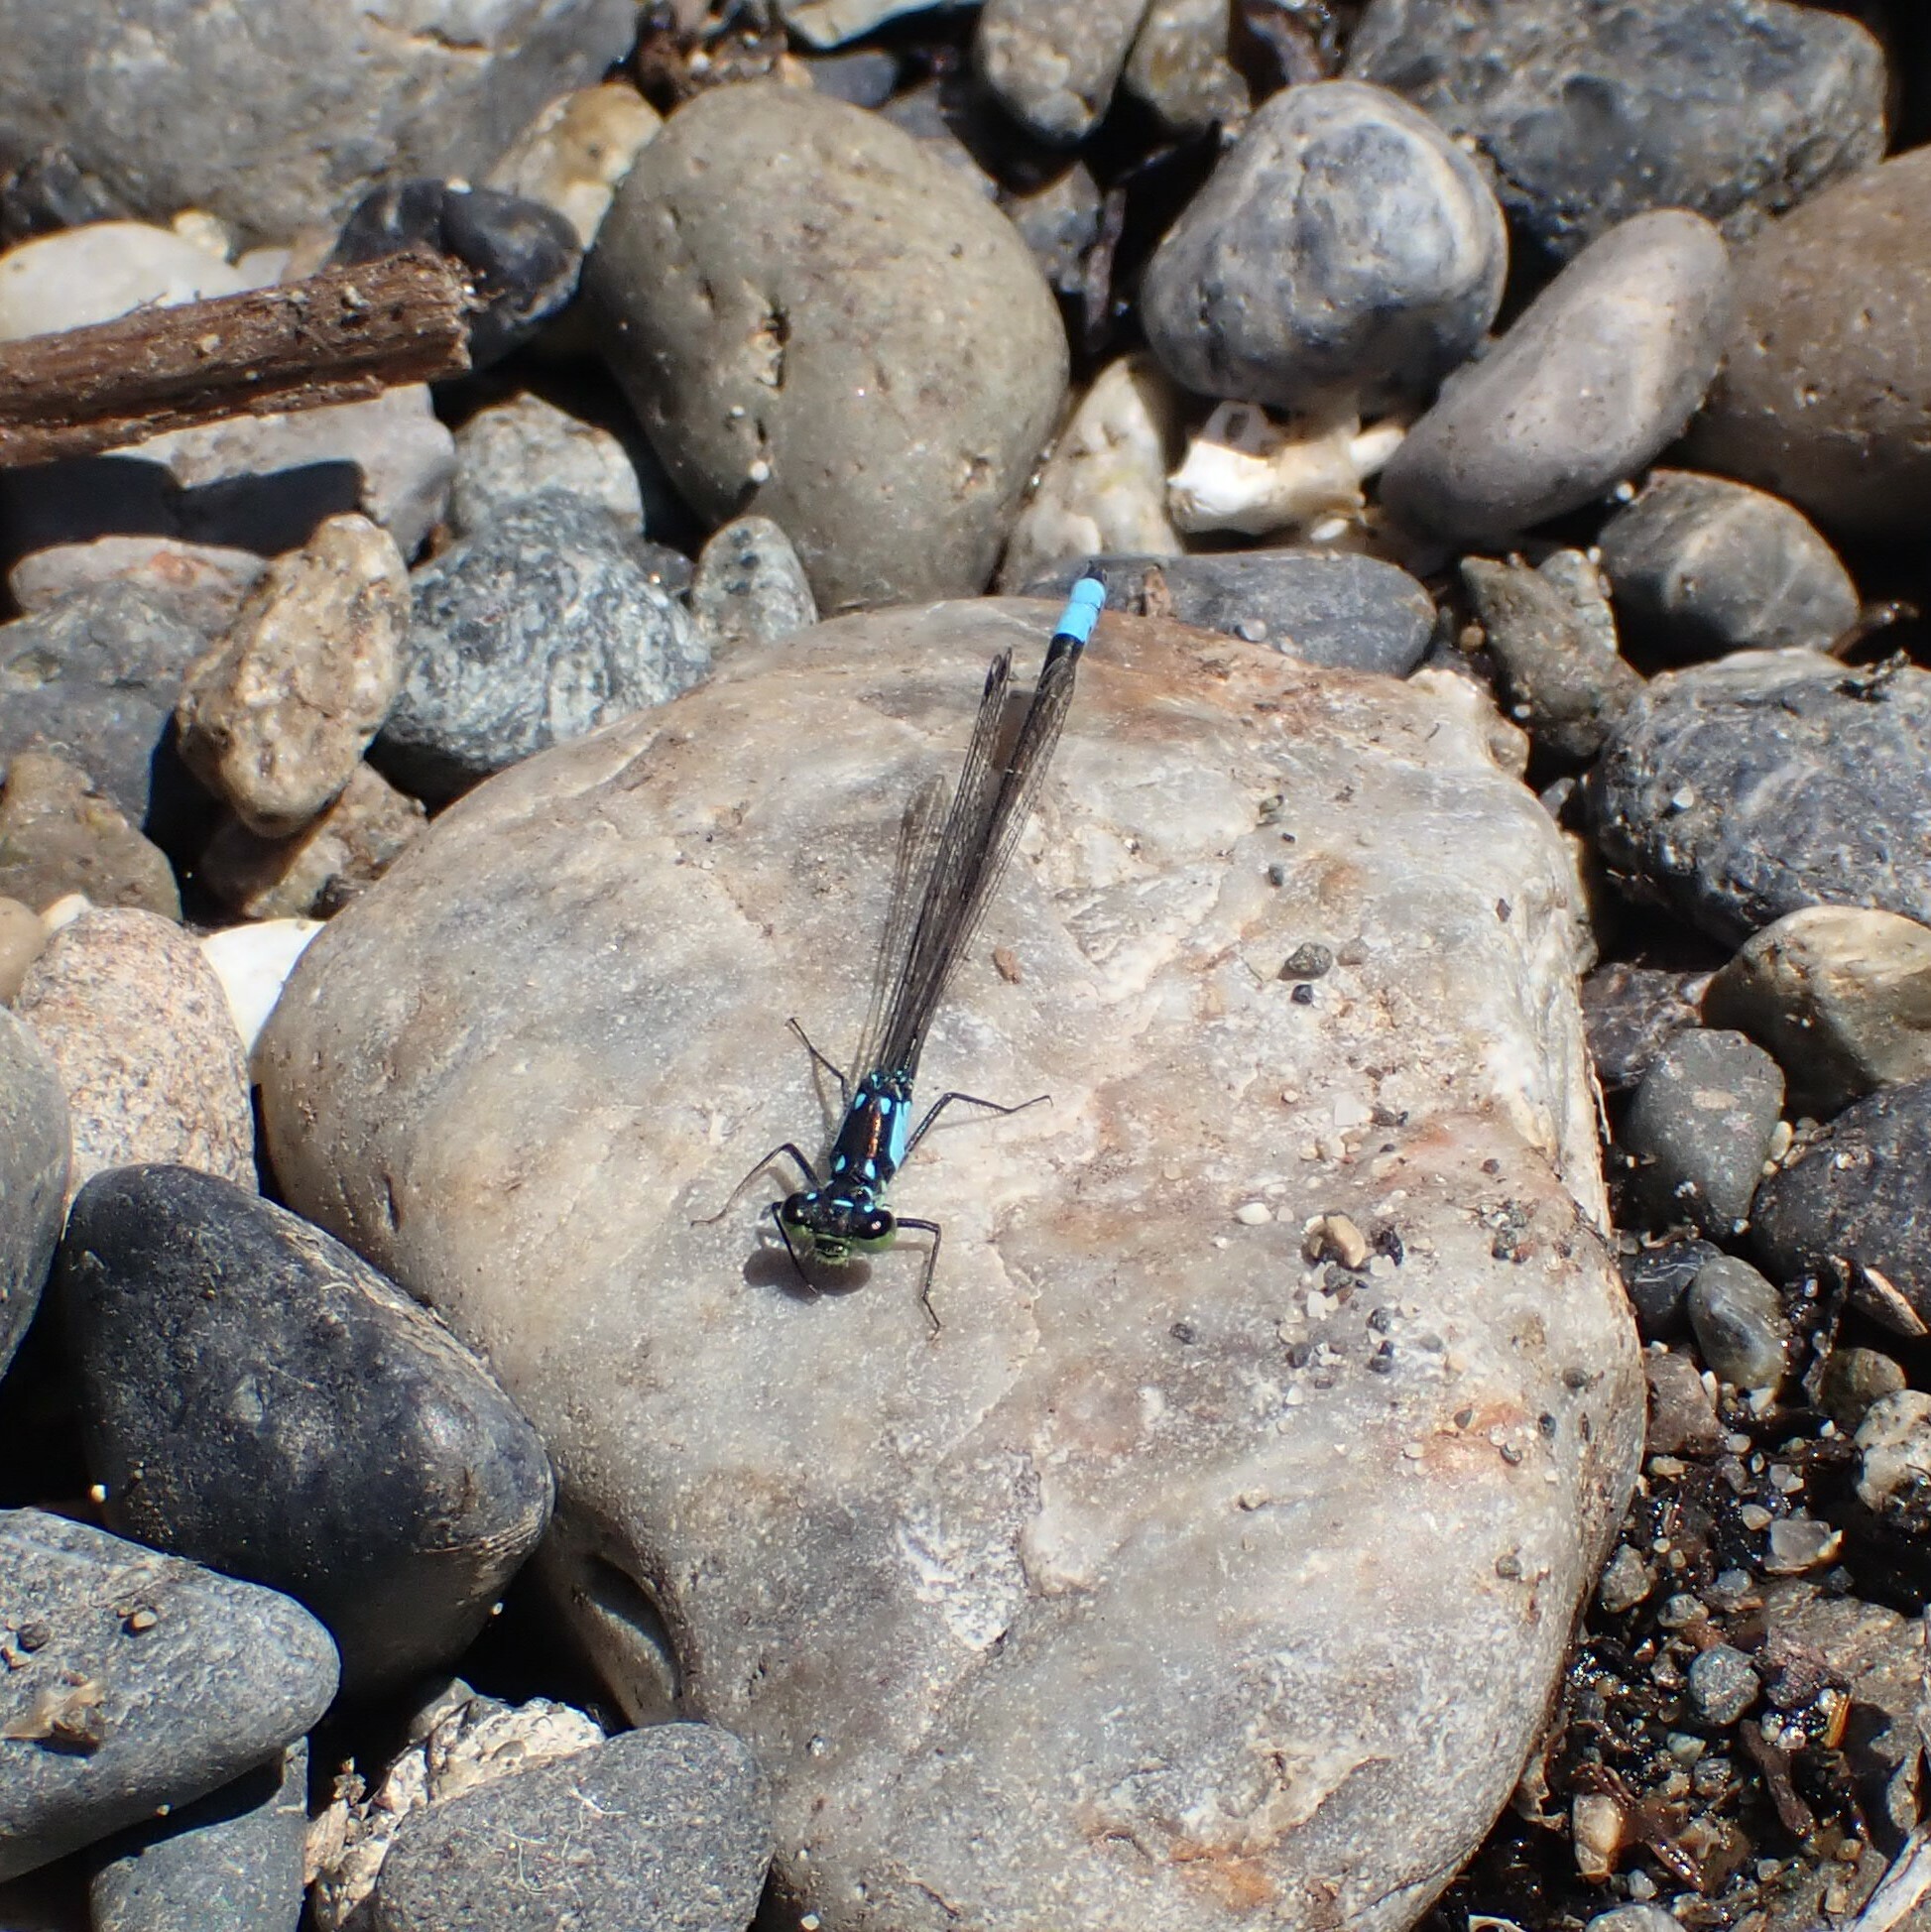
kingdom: Animalia
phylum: Arthropoda
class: Insecta
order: Odonata
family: Coenagrionidae
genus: Ischnura
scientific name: Ischnura cervula
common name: Pacific forktail
